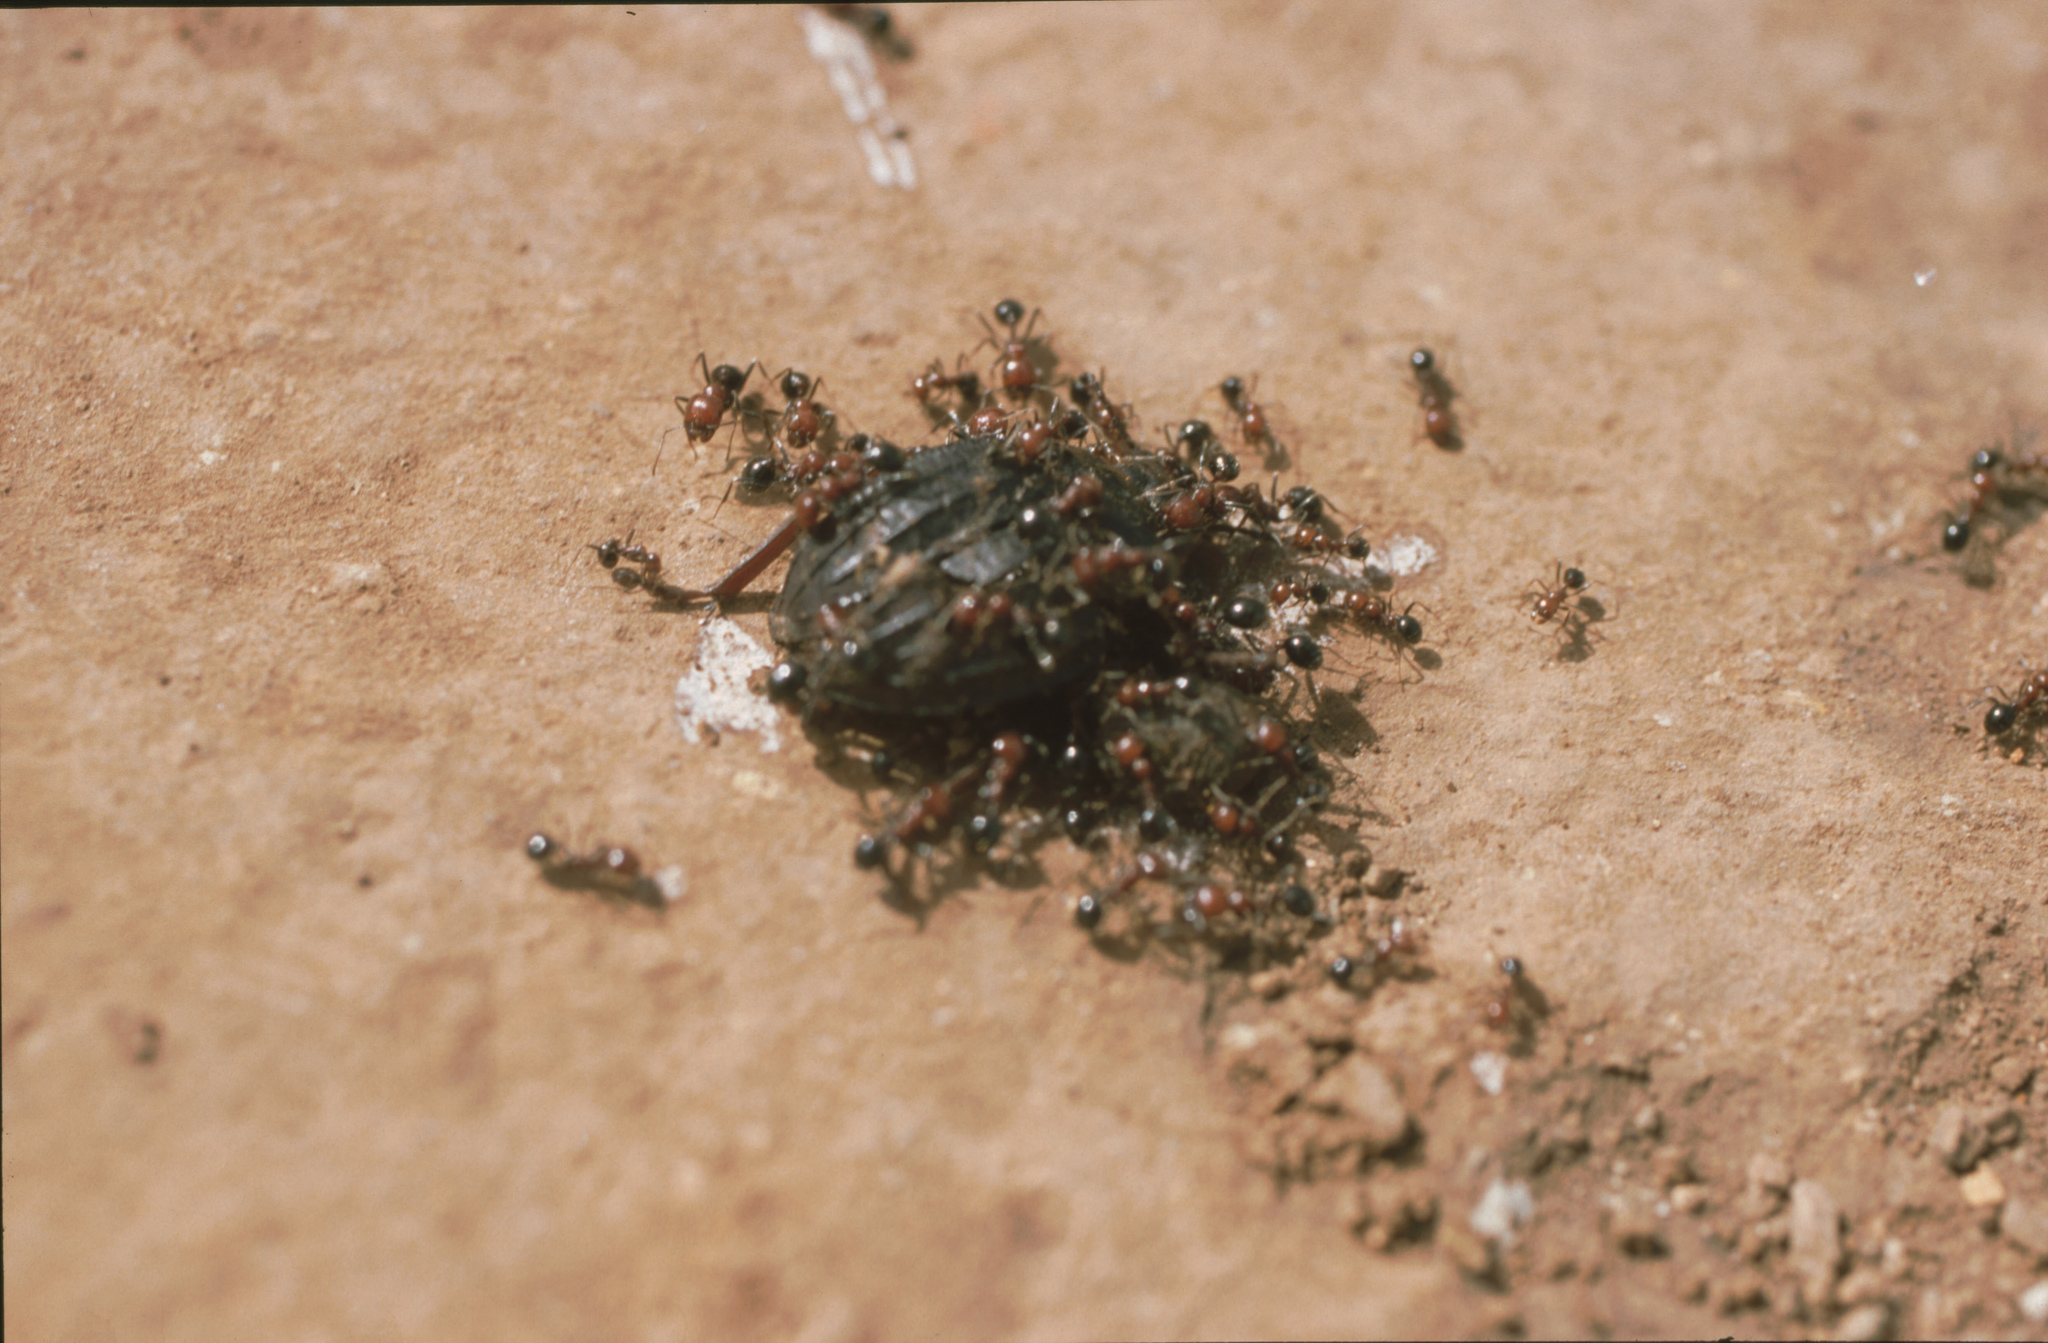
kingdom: Animalia
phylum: Arthropoda
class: Insecta
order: Hymenoptera
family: Formicidae
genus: Messor
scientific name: Messor minor
